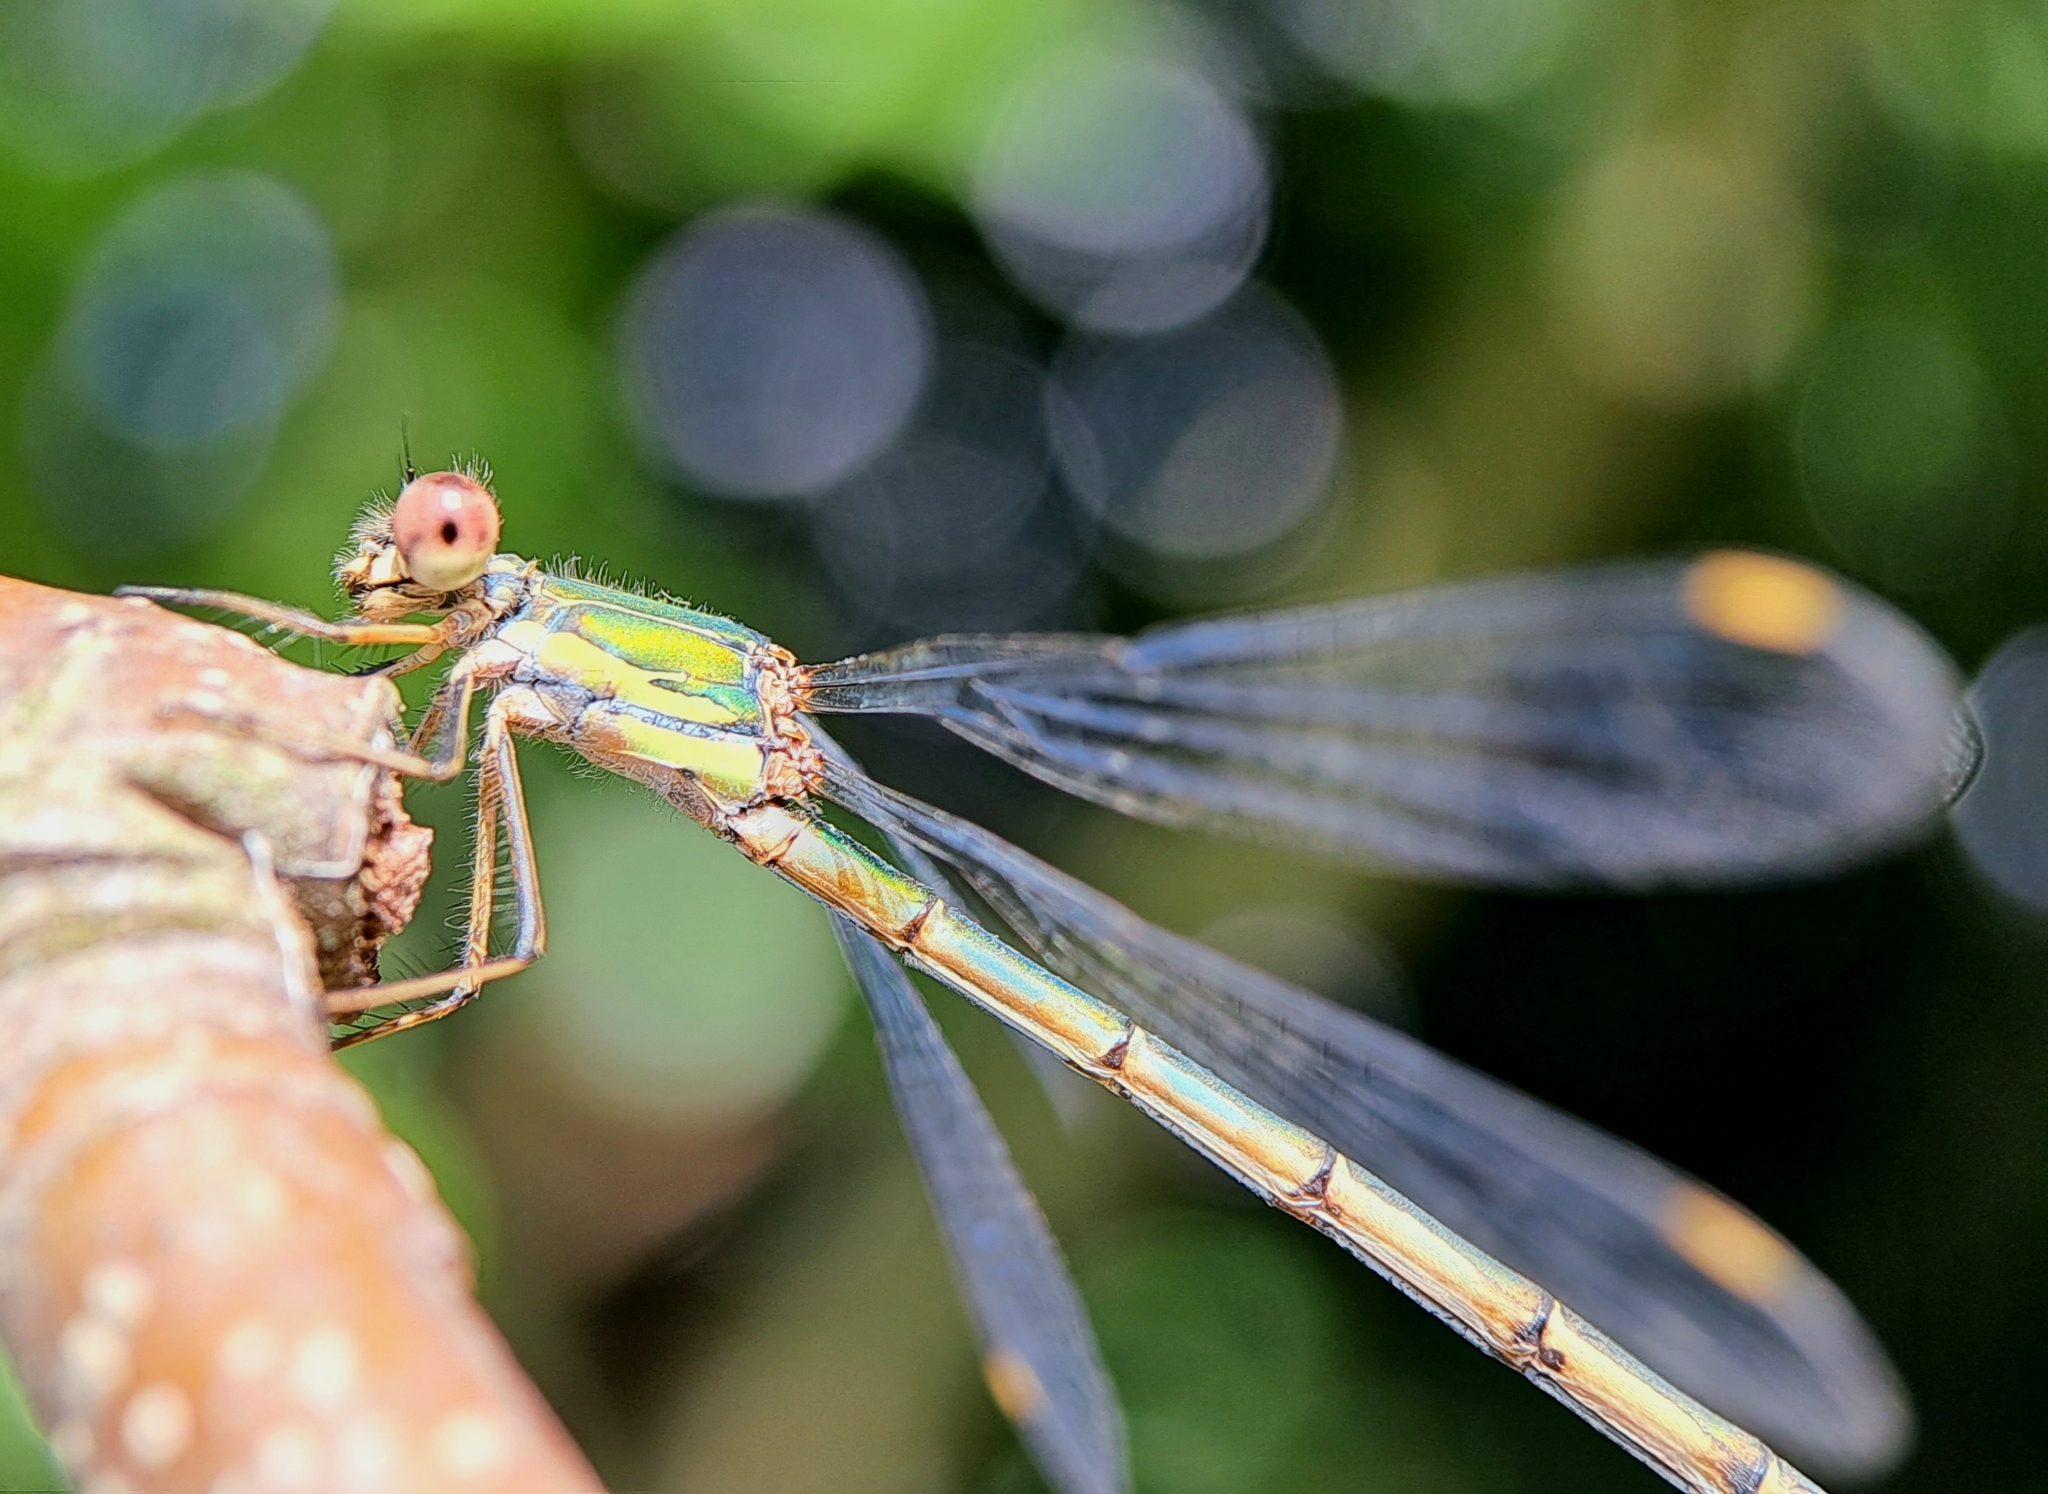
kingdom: Animalia
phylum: Arthropoda
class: Insecta
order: Odonata
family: Lestidae
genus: Chalcolestes
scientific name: Chalcolestes viridis
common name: Green emerald damselfly
